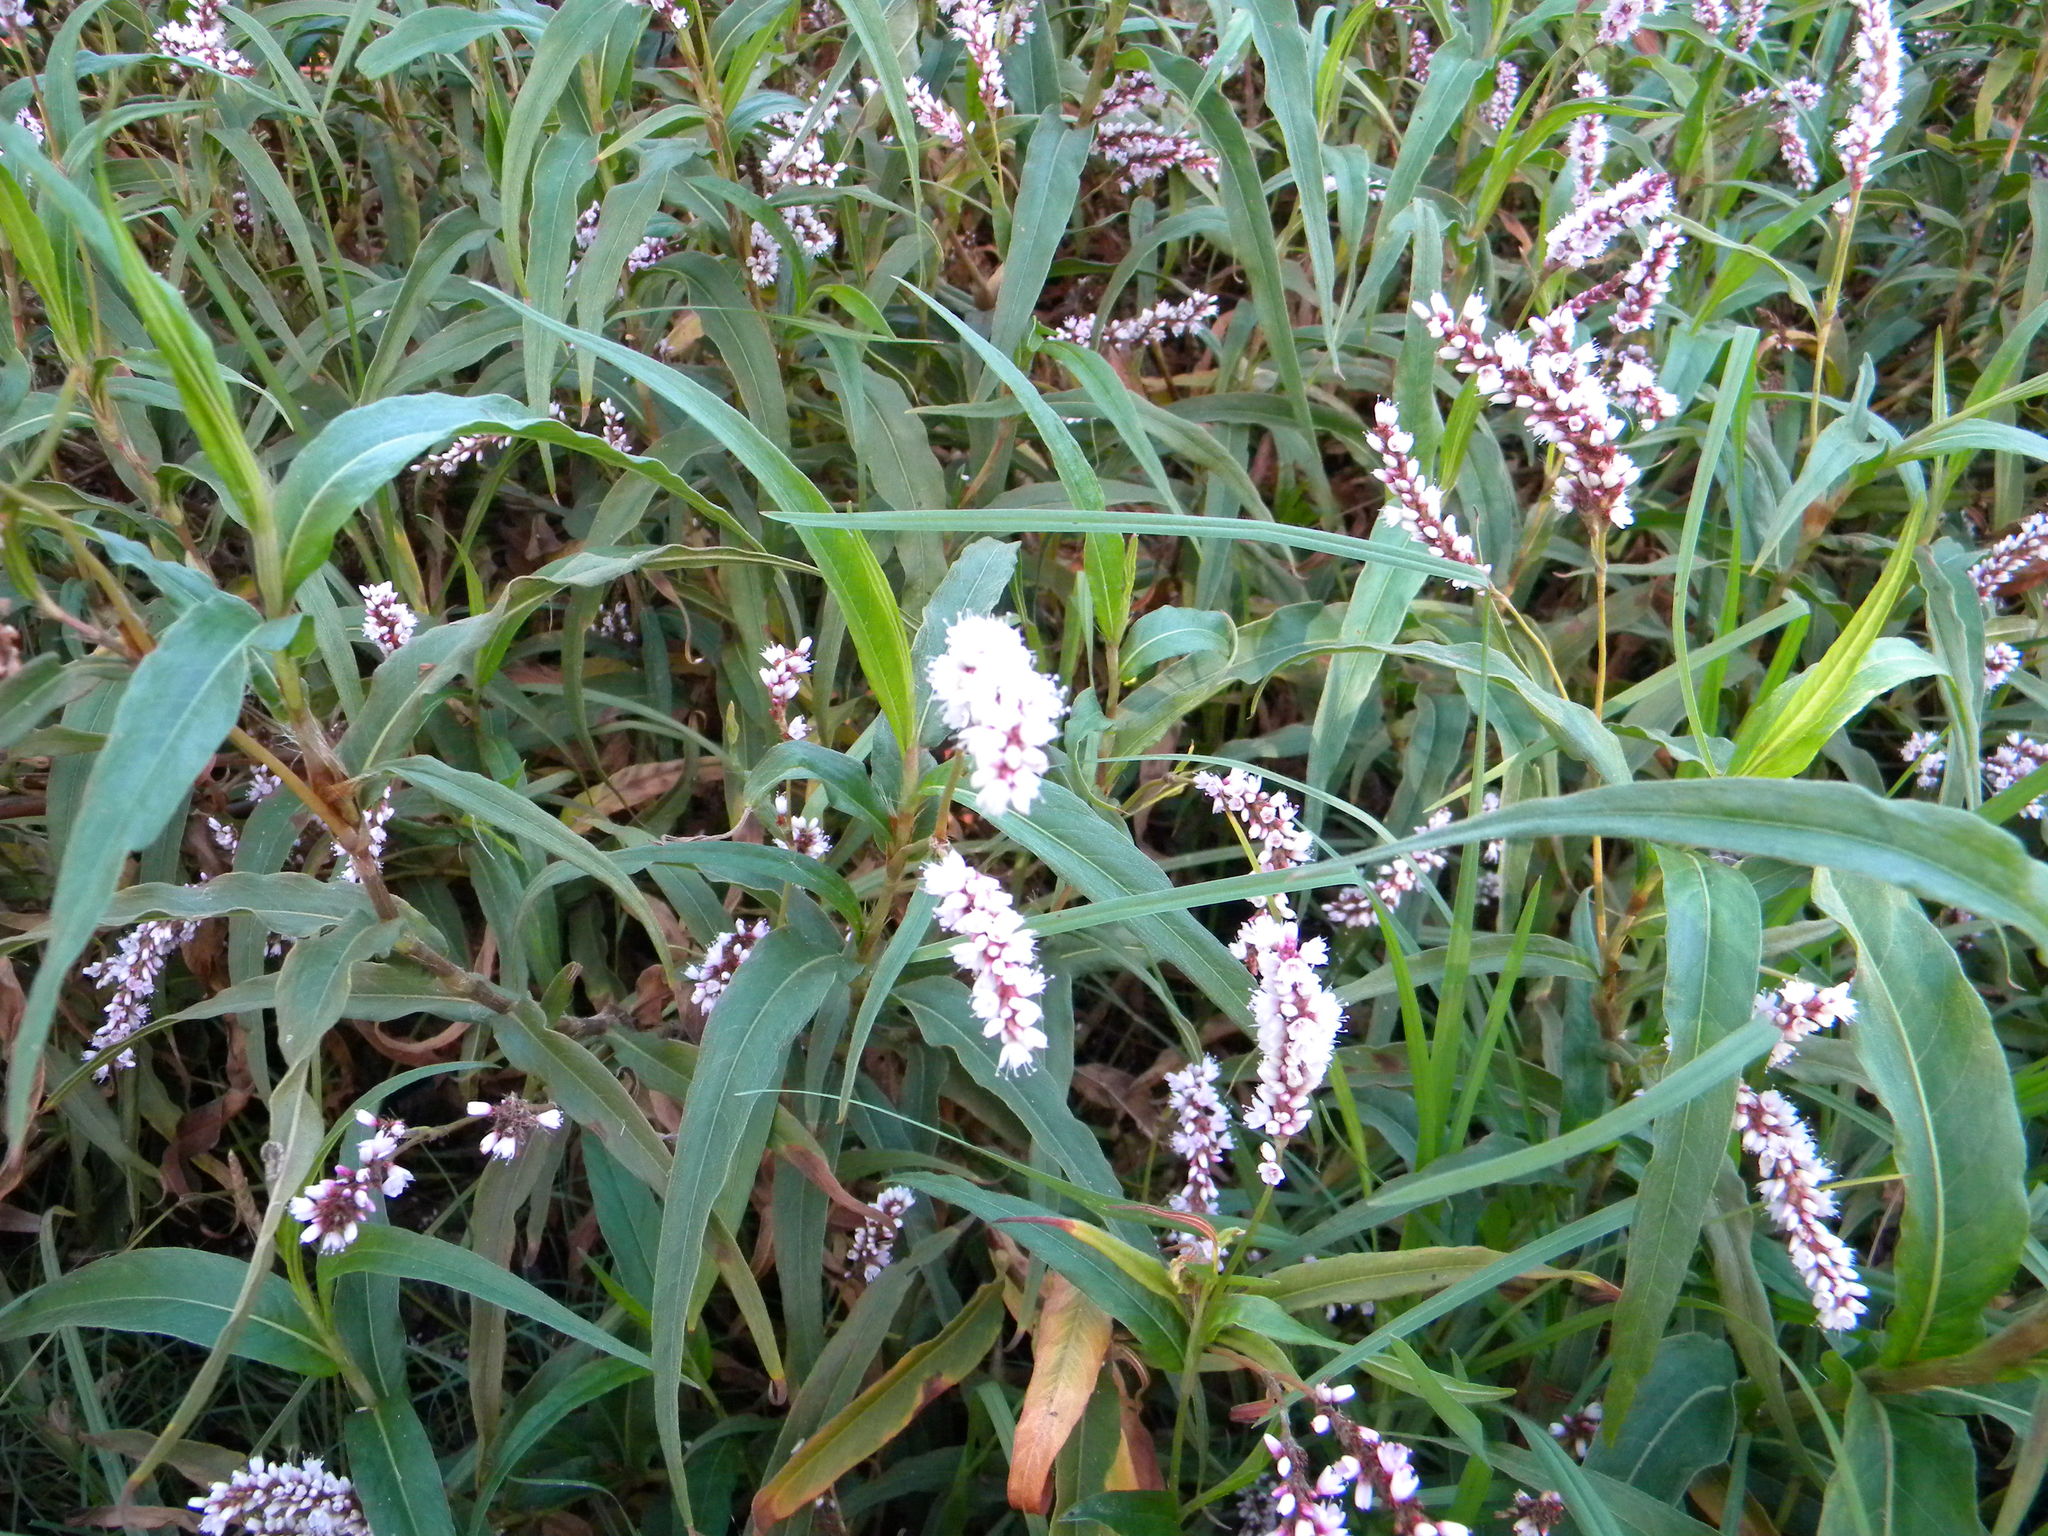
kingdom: Plantae
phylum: Tracheophyta
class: Magnoliopsida
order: Caryophyllales
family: Polygonaceae
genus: Persicaria
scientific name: Persicaria madagascariensis
